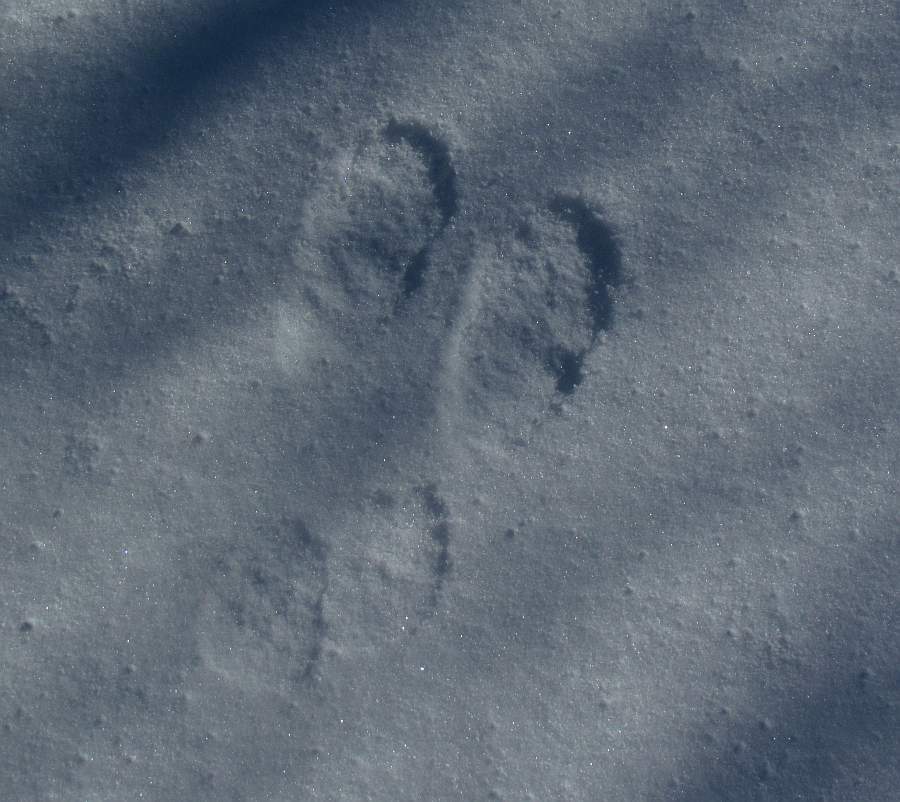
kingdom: Animalia
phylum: Chordata
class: Mammalia
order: Lagomorpha
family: Leporidae
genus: Lepus
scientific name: Lepus americanus
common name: Snowshoe hare
